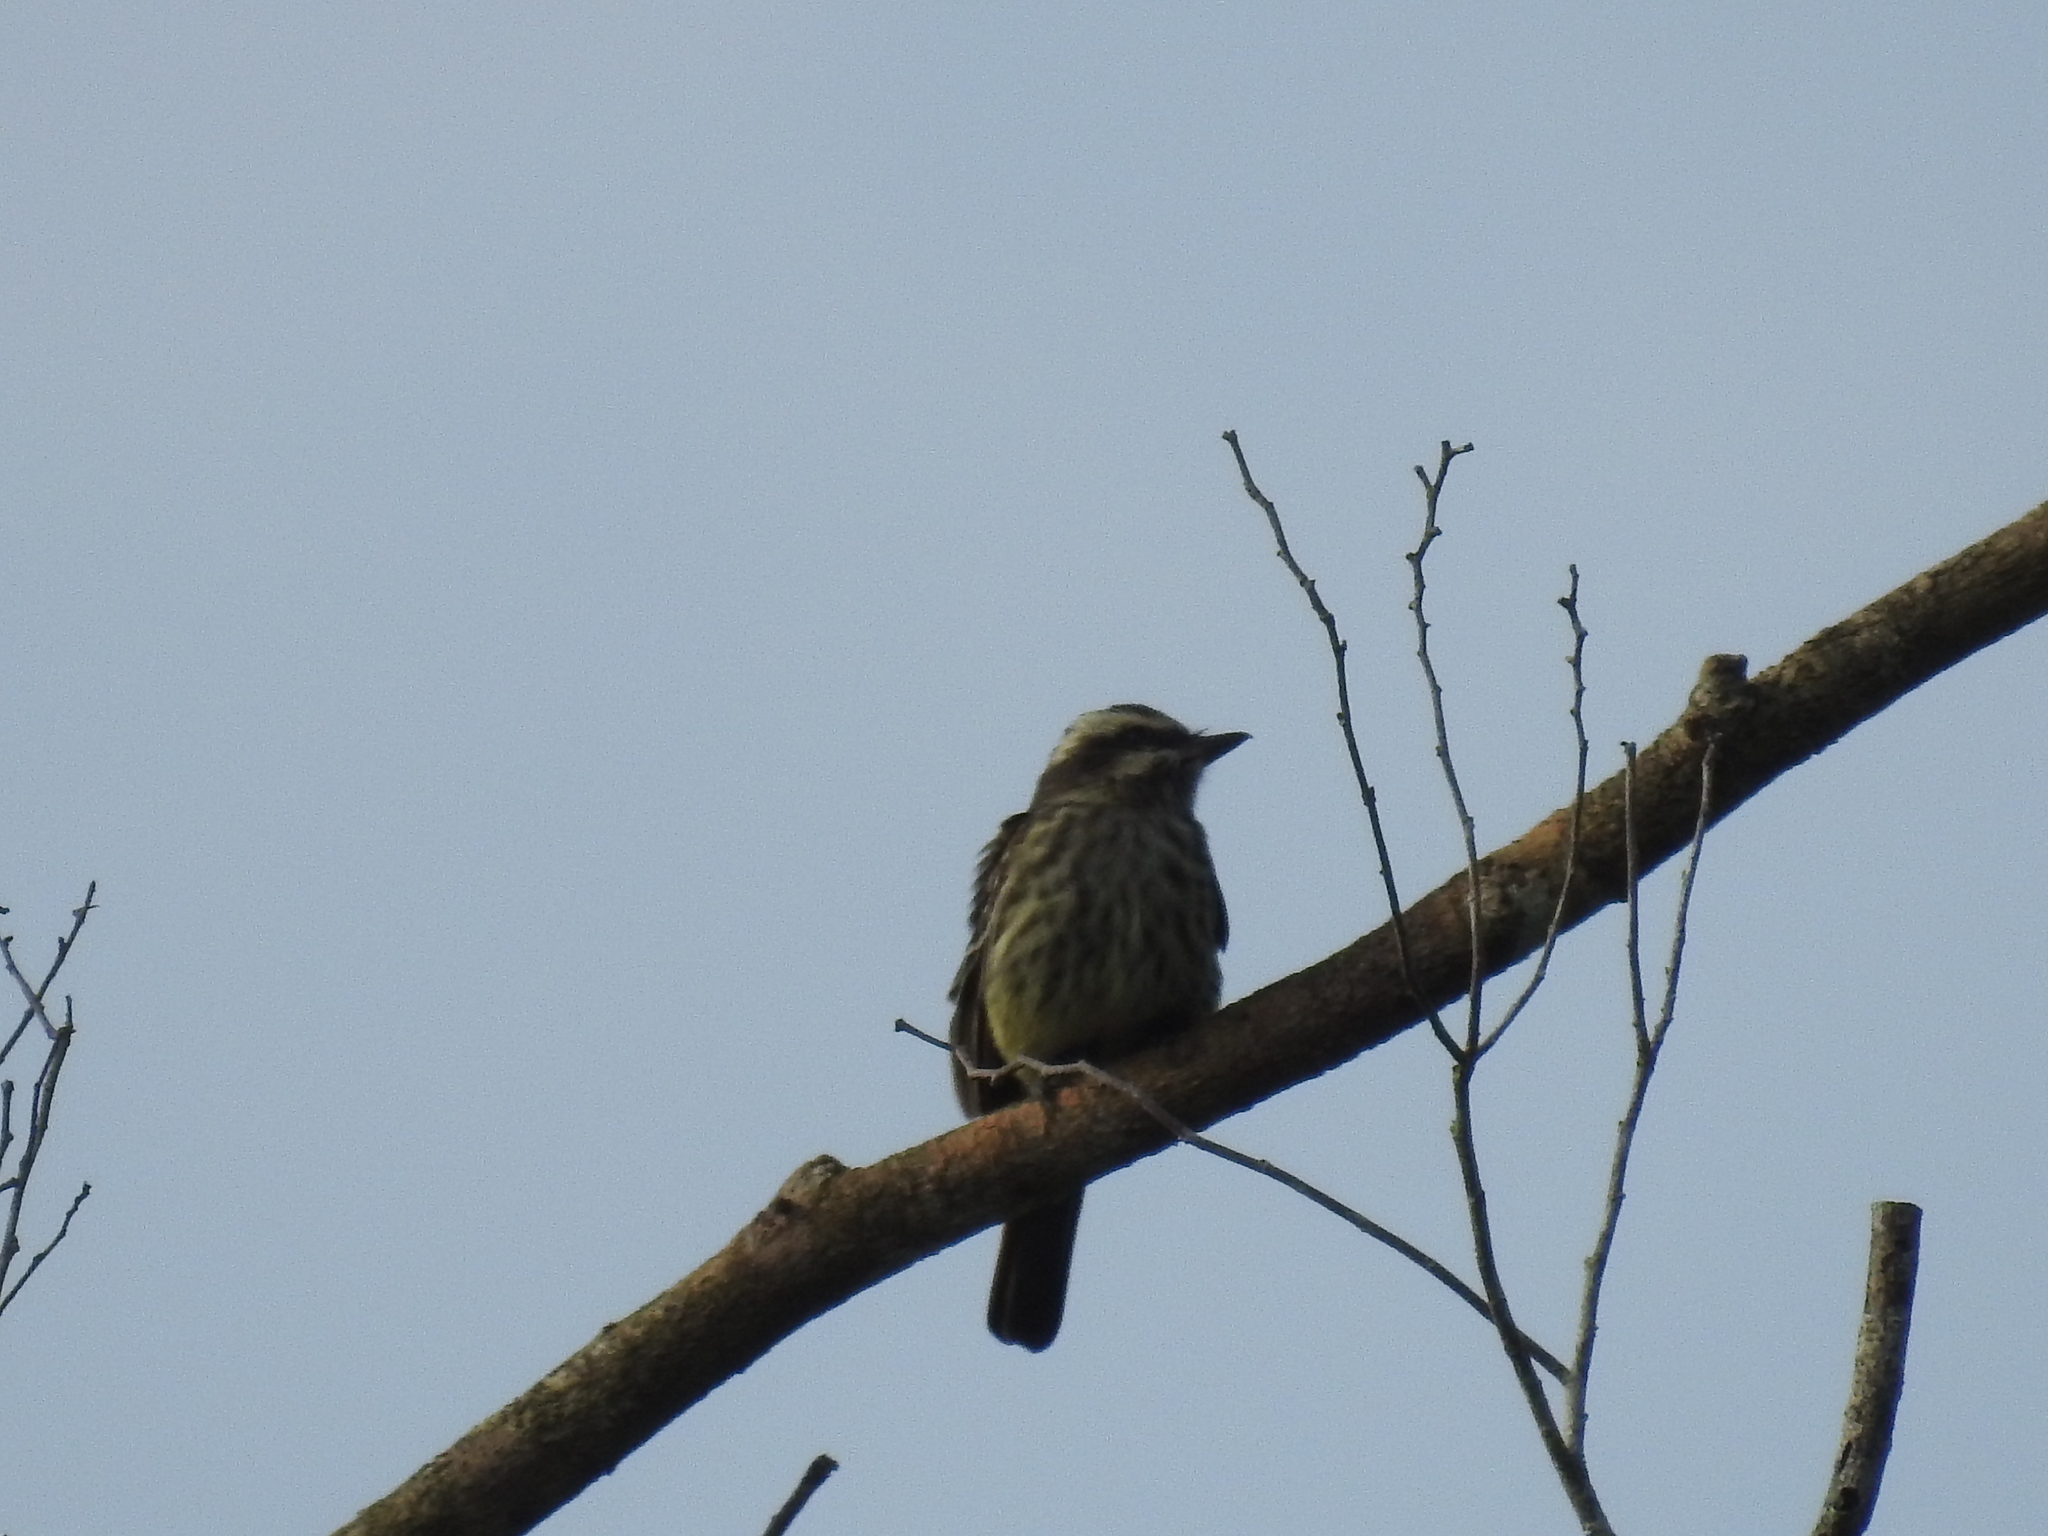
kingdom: Animalia
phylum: Chordata
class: Aves
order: Passeriformes
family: Tyrannidae
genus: Empidonomus
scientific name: Empidonomus varius
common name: Variegated flycatcher
